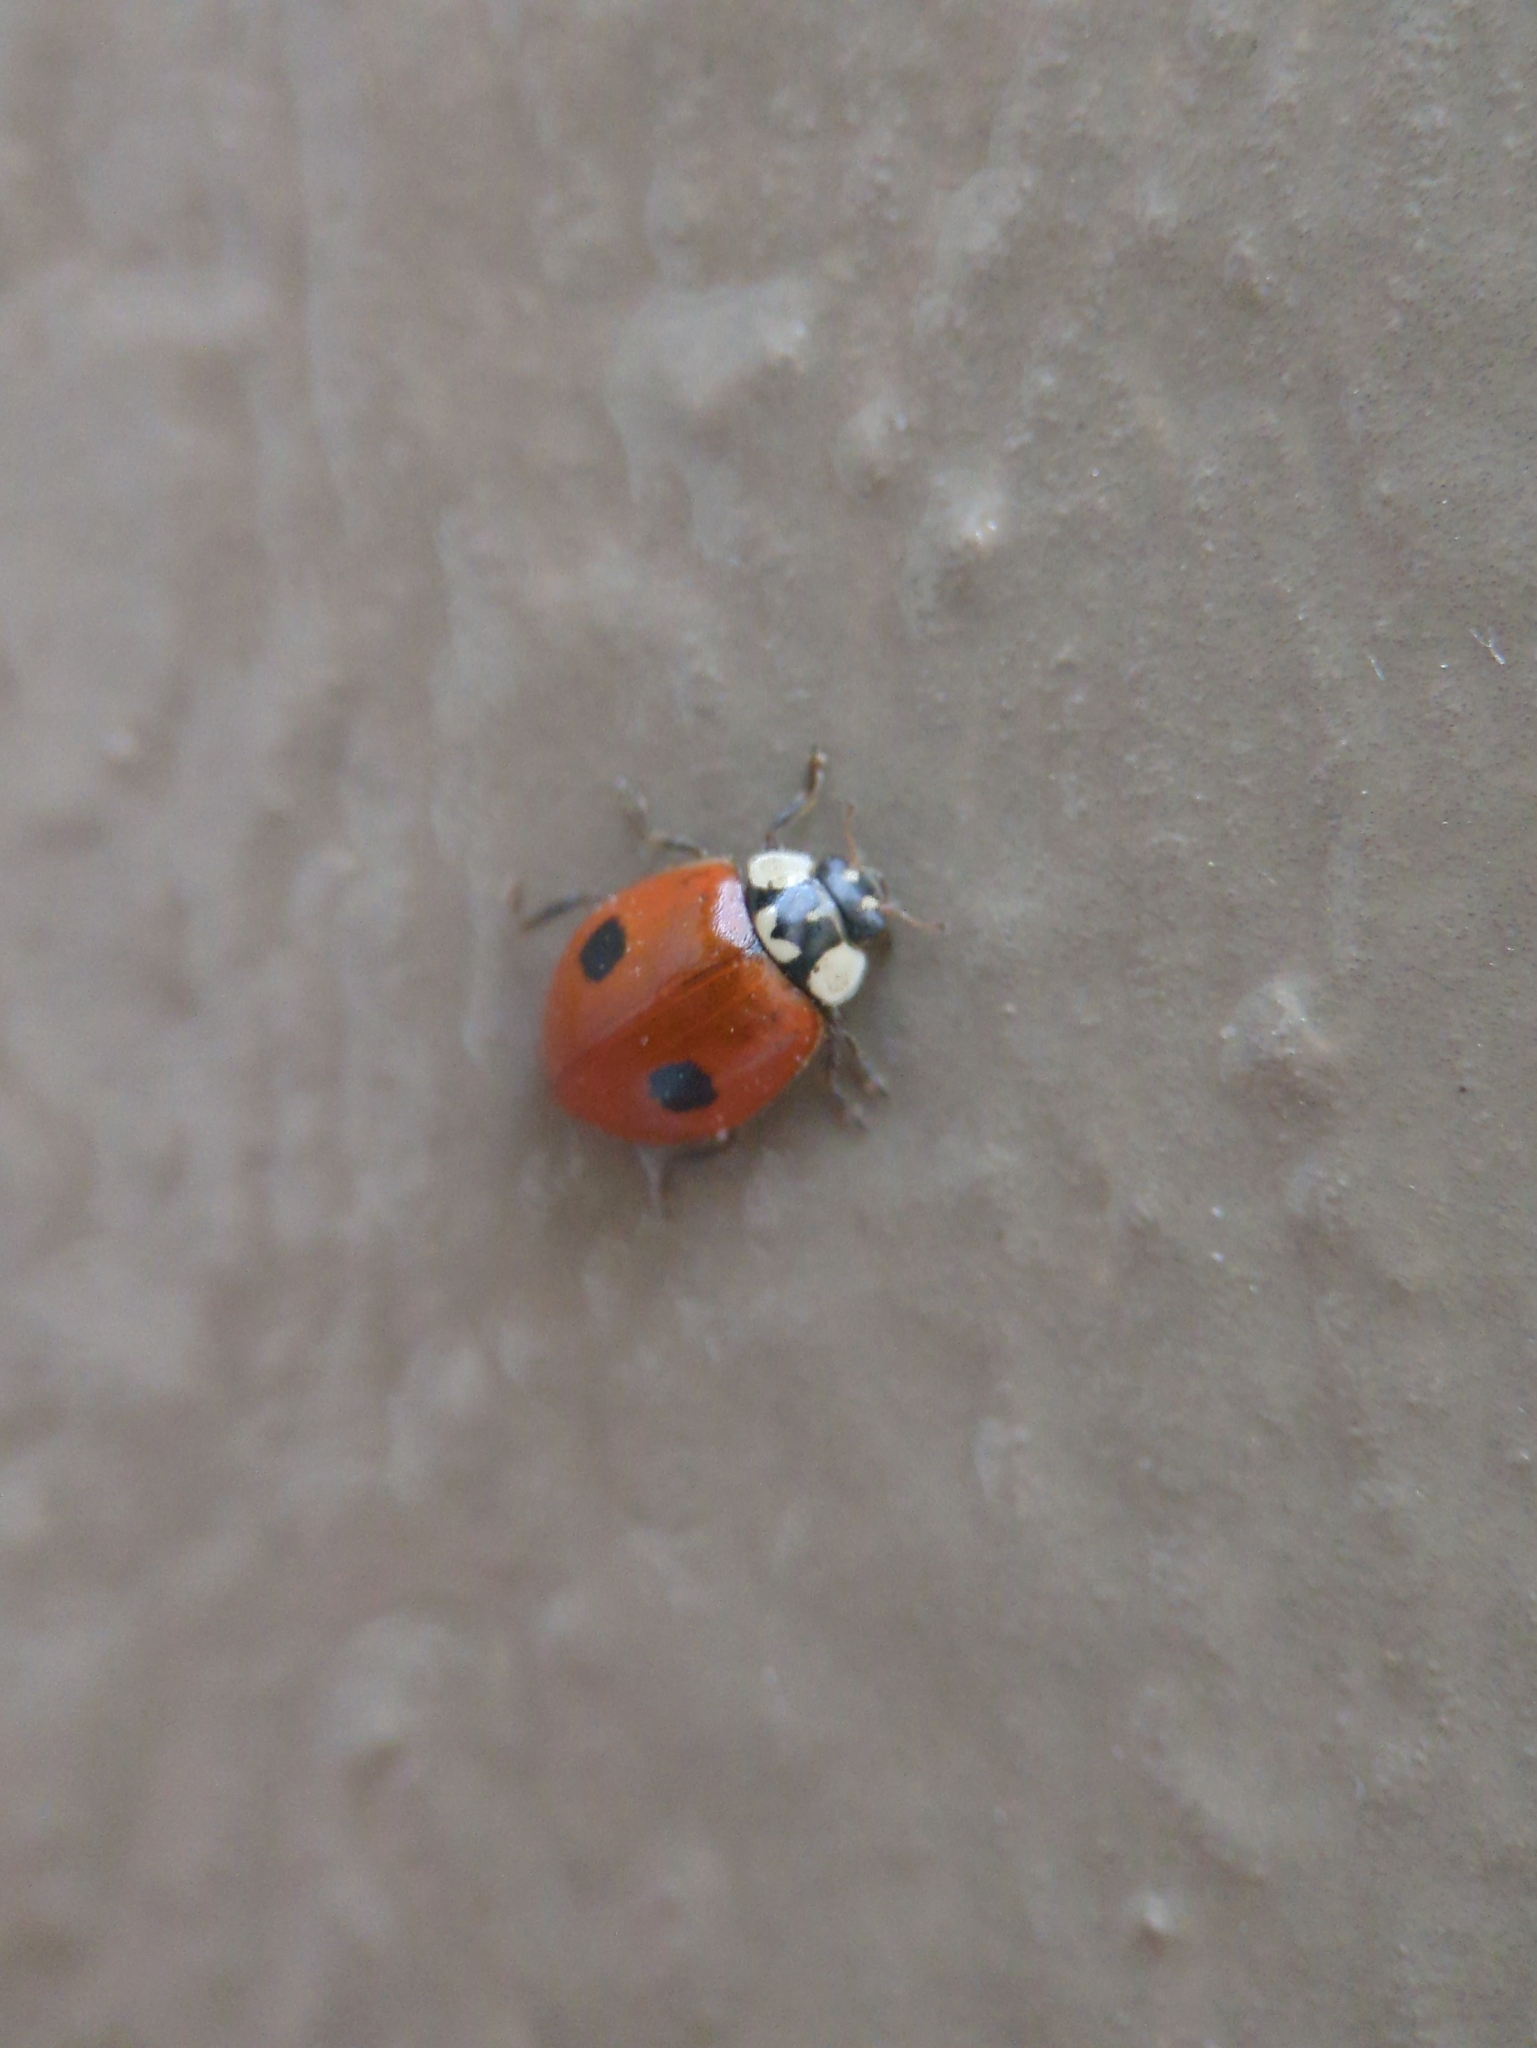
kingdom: Animalia
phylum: Arthropoda
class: Insecta
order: Coleoptera
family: Coccinellidae
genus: Adalia
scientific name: Adalia bipunctata
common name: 2-spot ladybird
